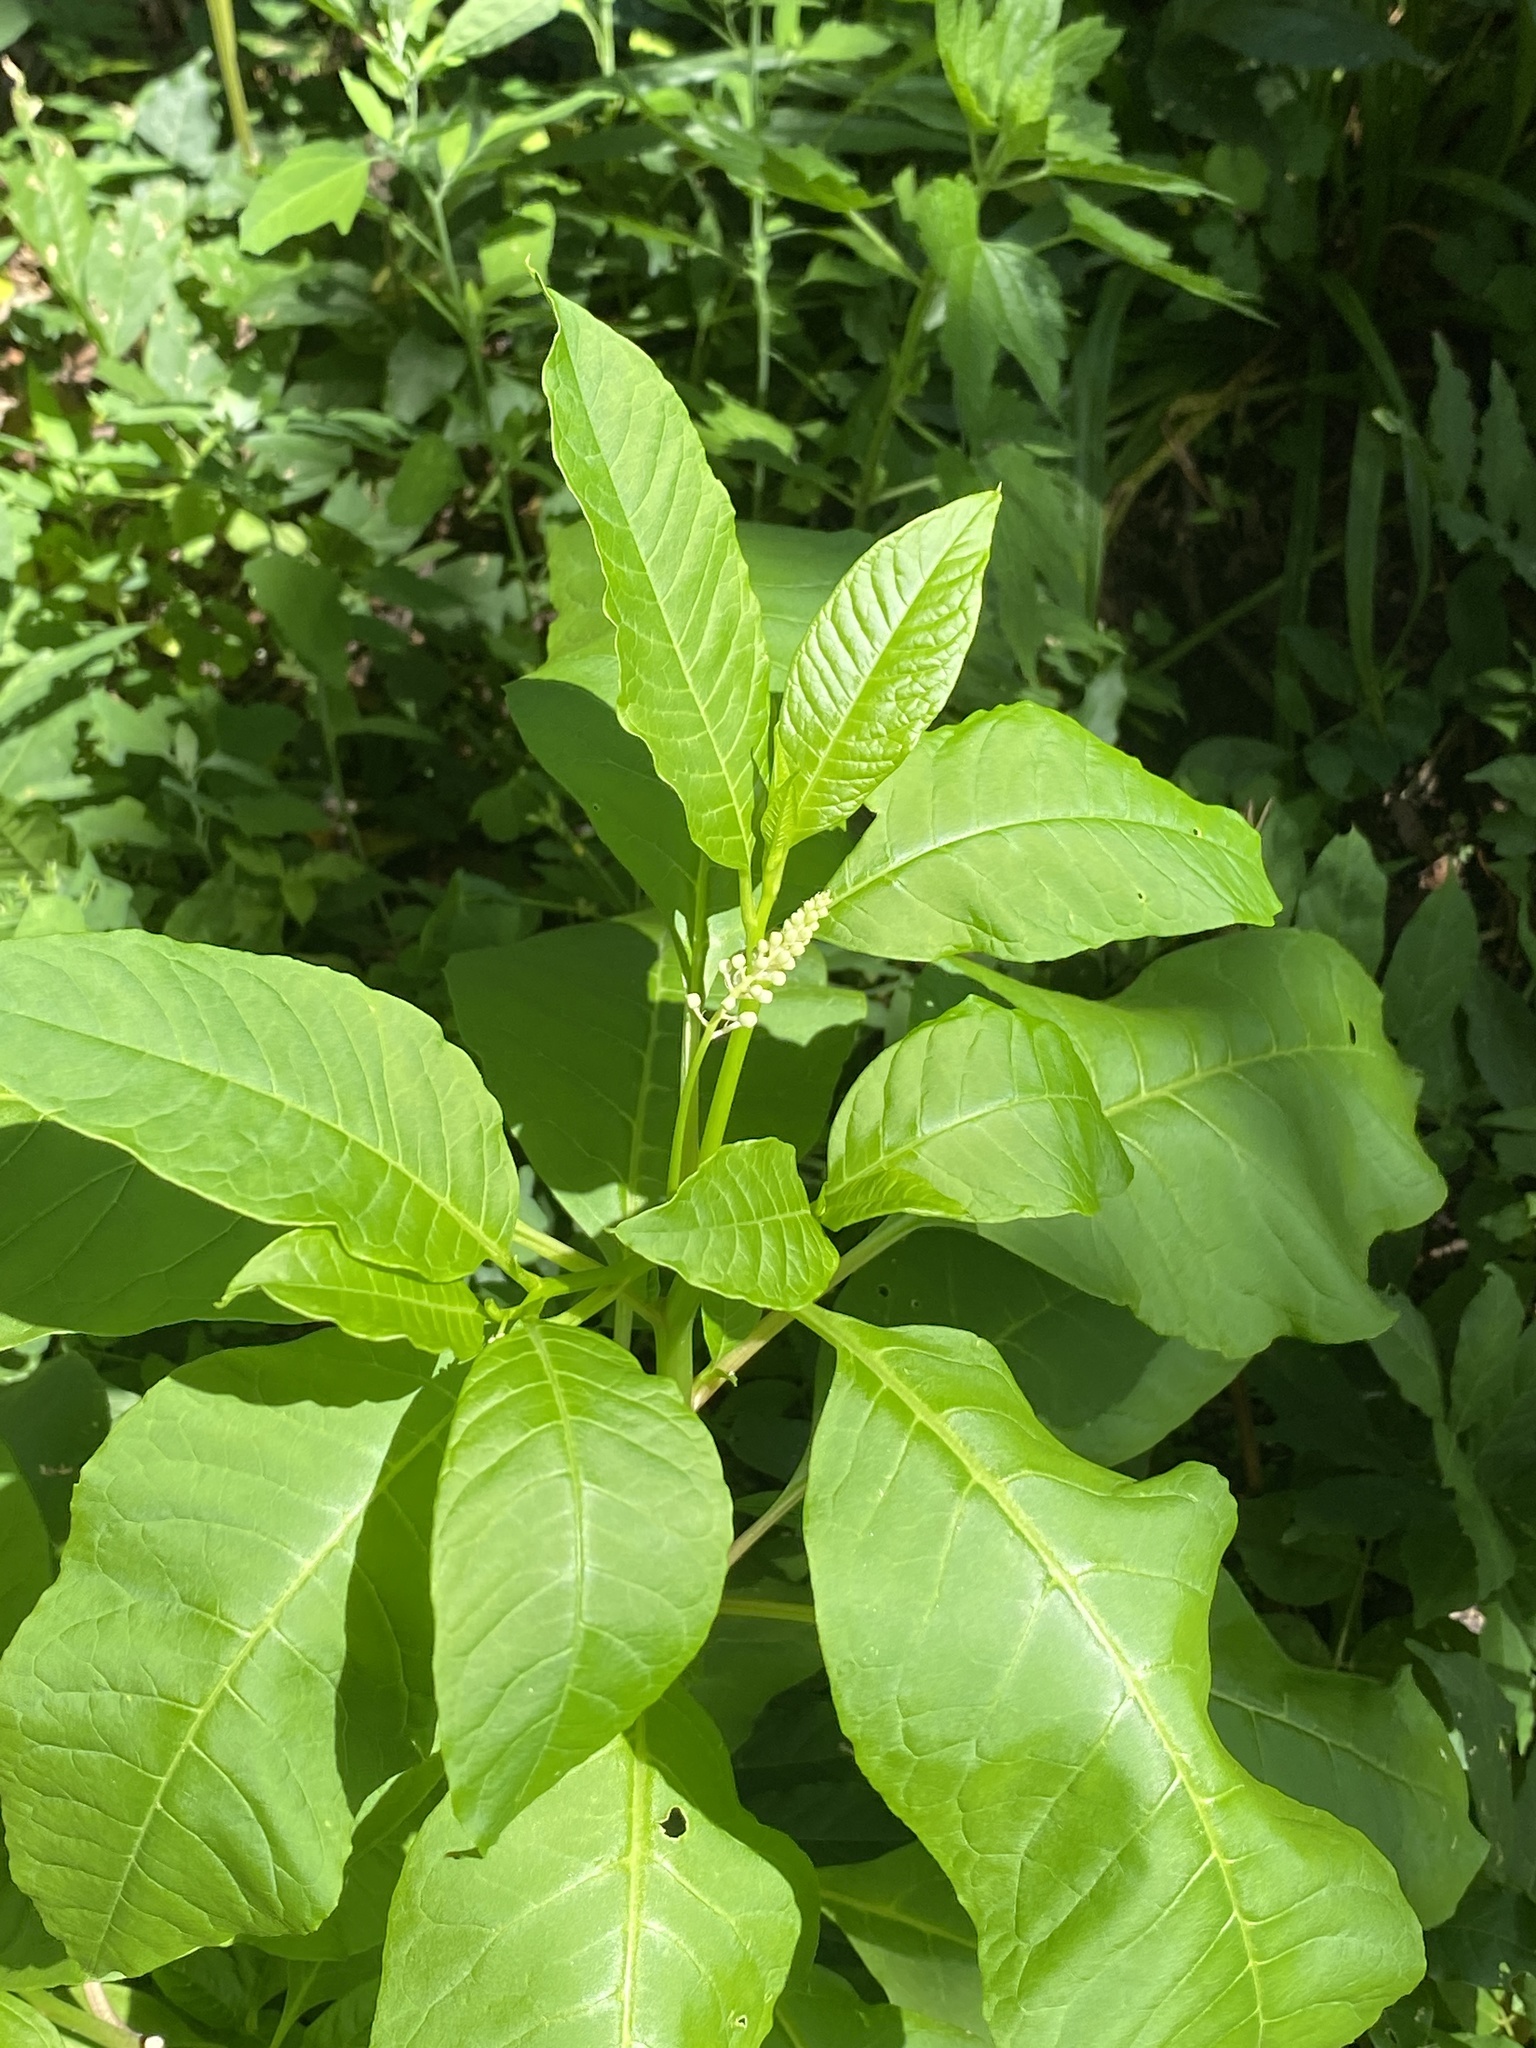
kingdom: Plantae
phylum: Tracheophyta
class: Magnoliopsida
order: Caryophyllales
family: Phytolaccaceae
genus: Phytolacca
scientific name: Phytolacca americana
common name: American pokeweed
